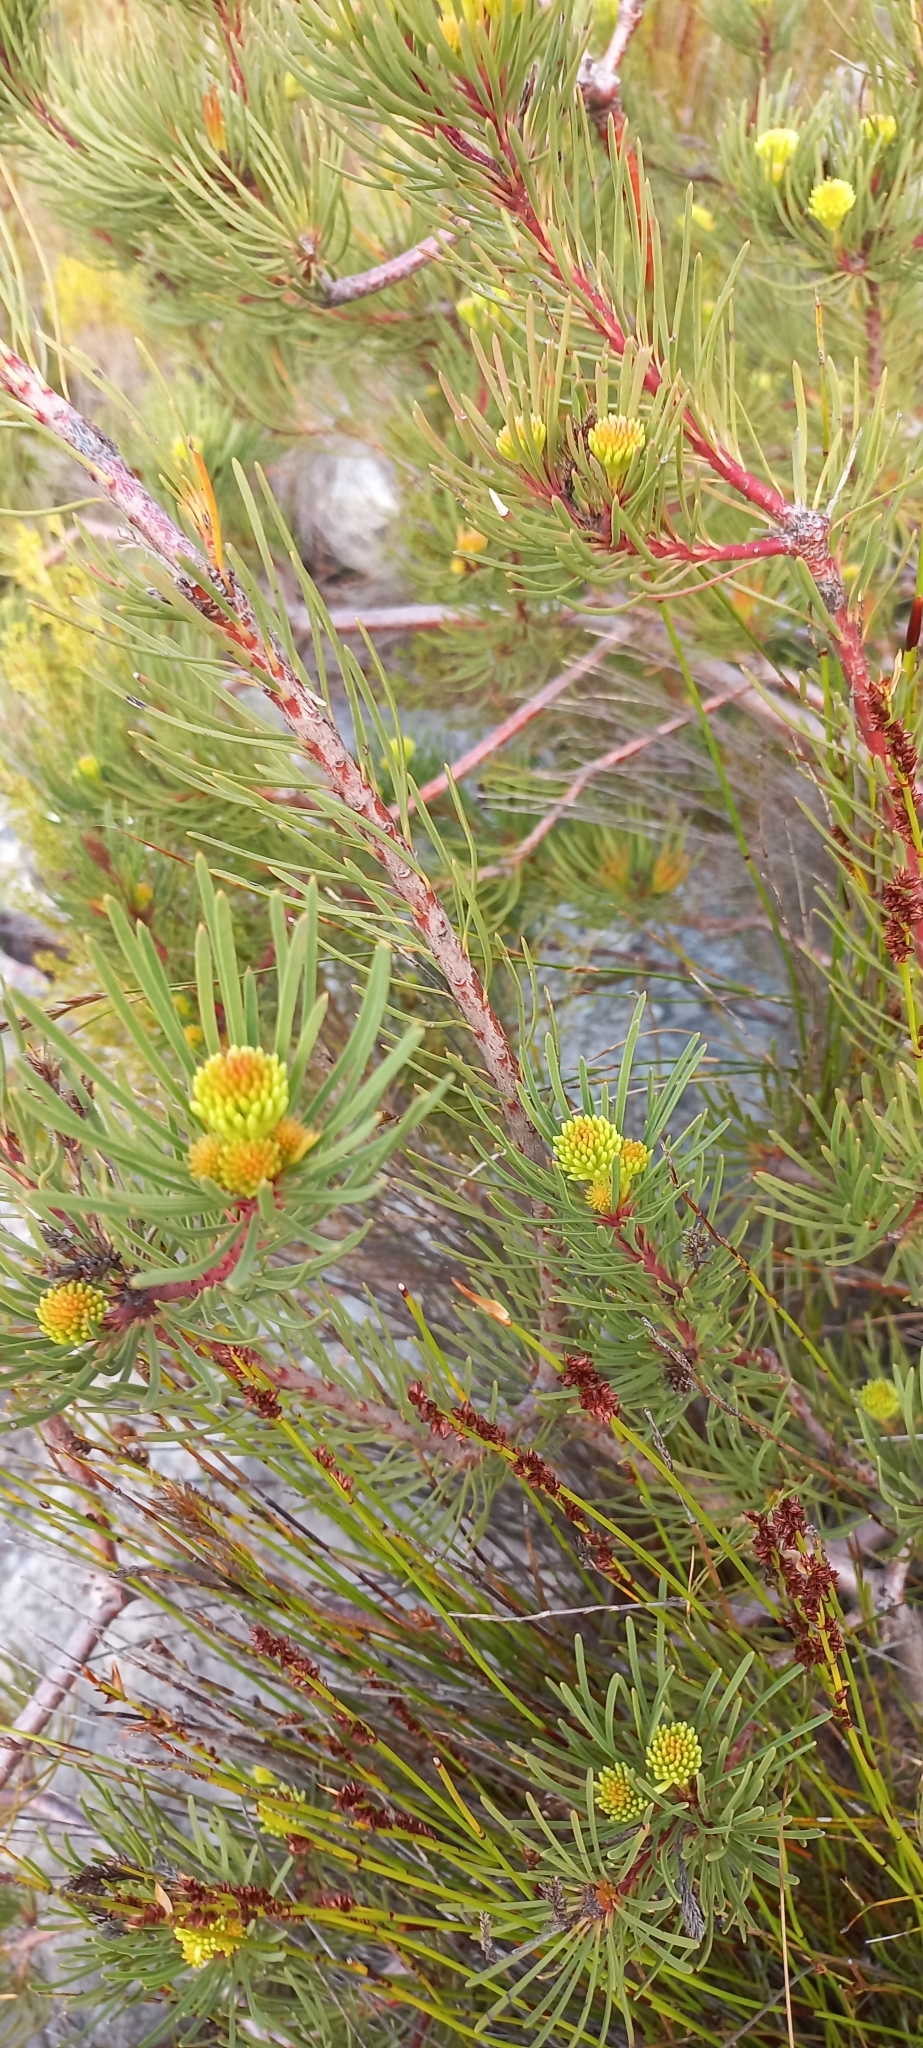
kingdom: Plantae
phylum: Tracheophyta
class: Magnoliopsida
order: Proteales
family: Proteaceae
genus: Aulax
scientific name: Aulax umbellata
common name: Broad-leaf featherbush
